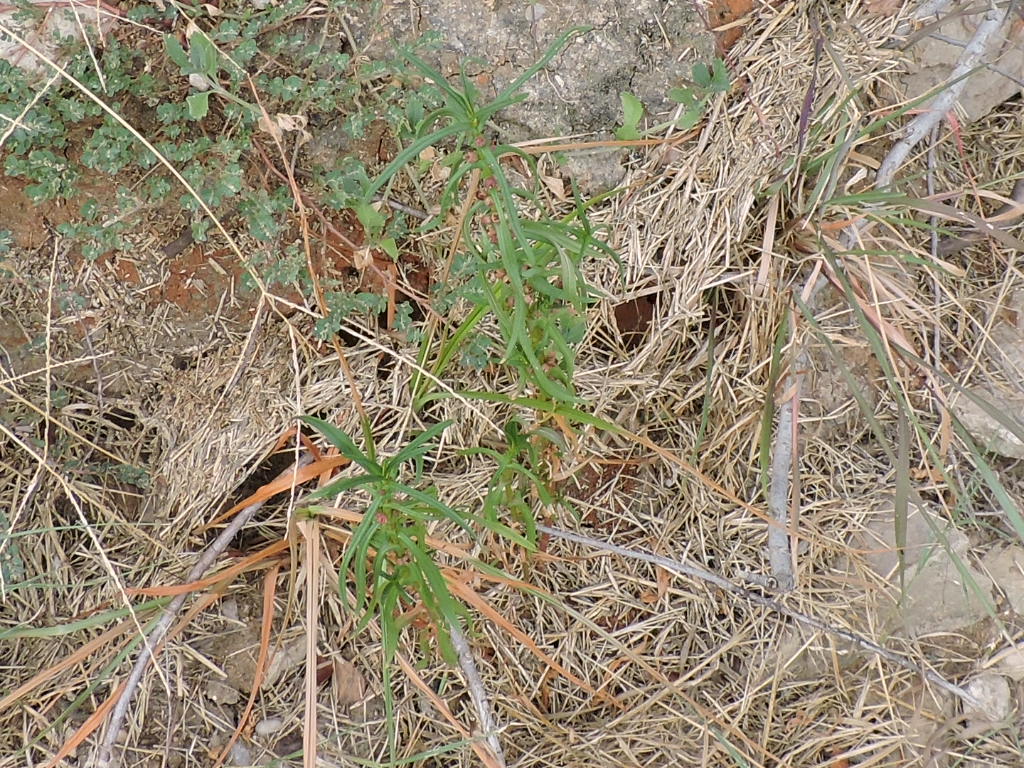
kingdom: Plantae
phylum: Tracheophyta
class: Magnoliopsida
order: Myrtales
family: Lythraceae
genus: Ammannia
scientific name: Ammannia coccinea
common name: Valley redstem
